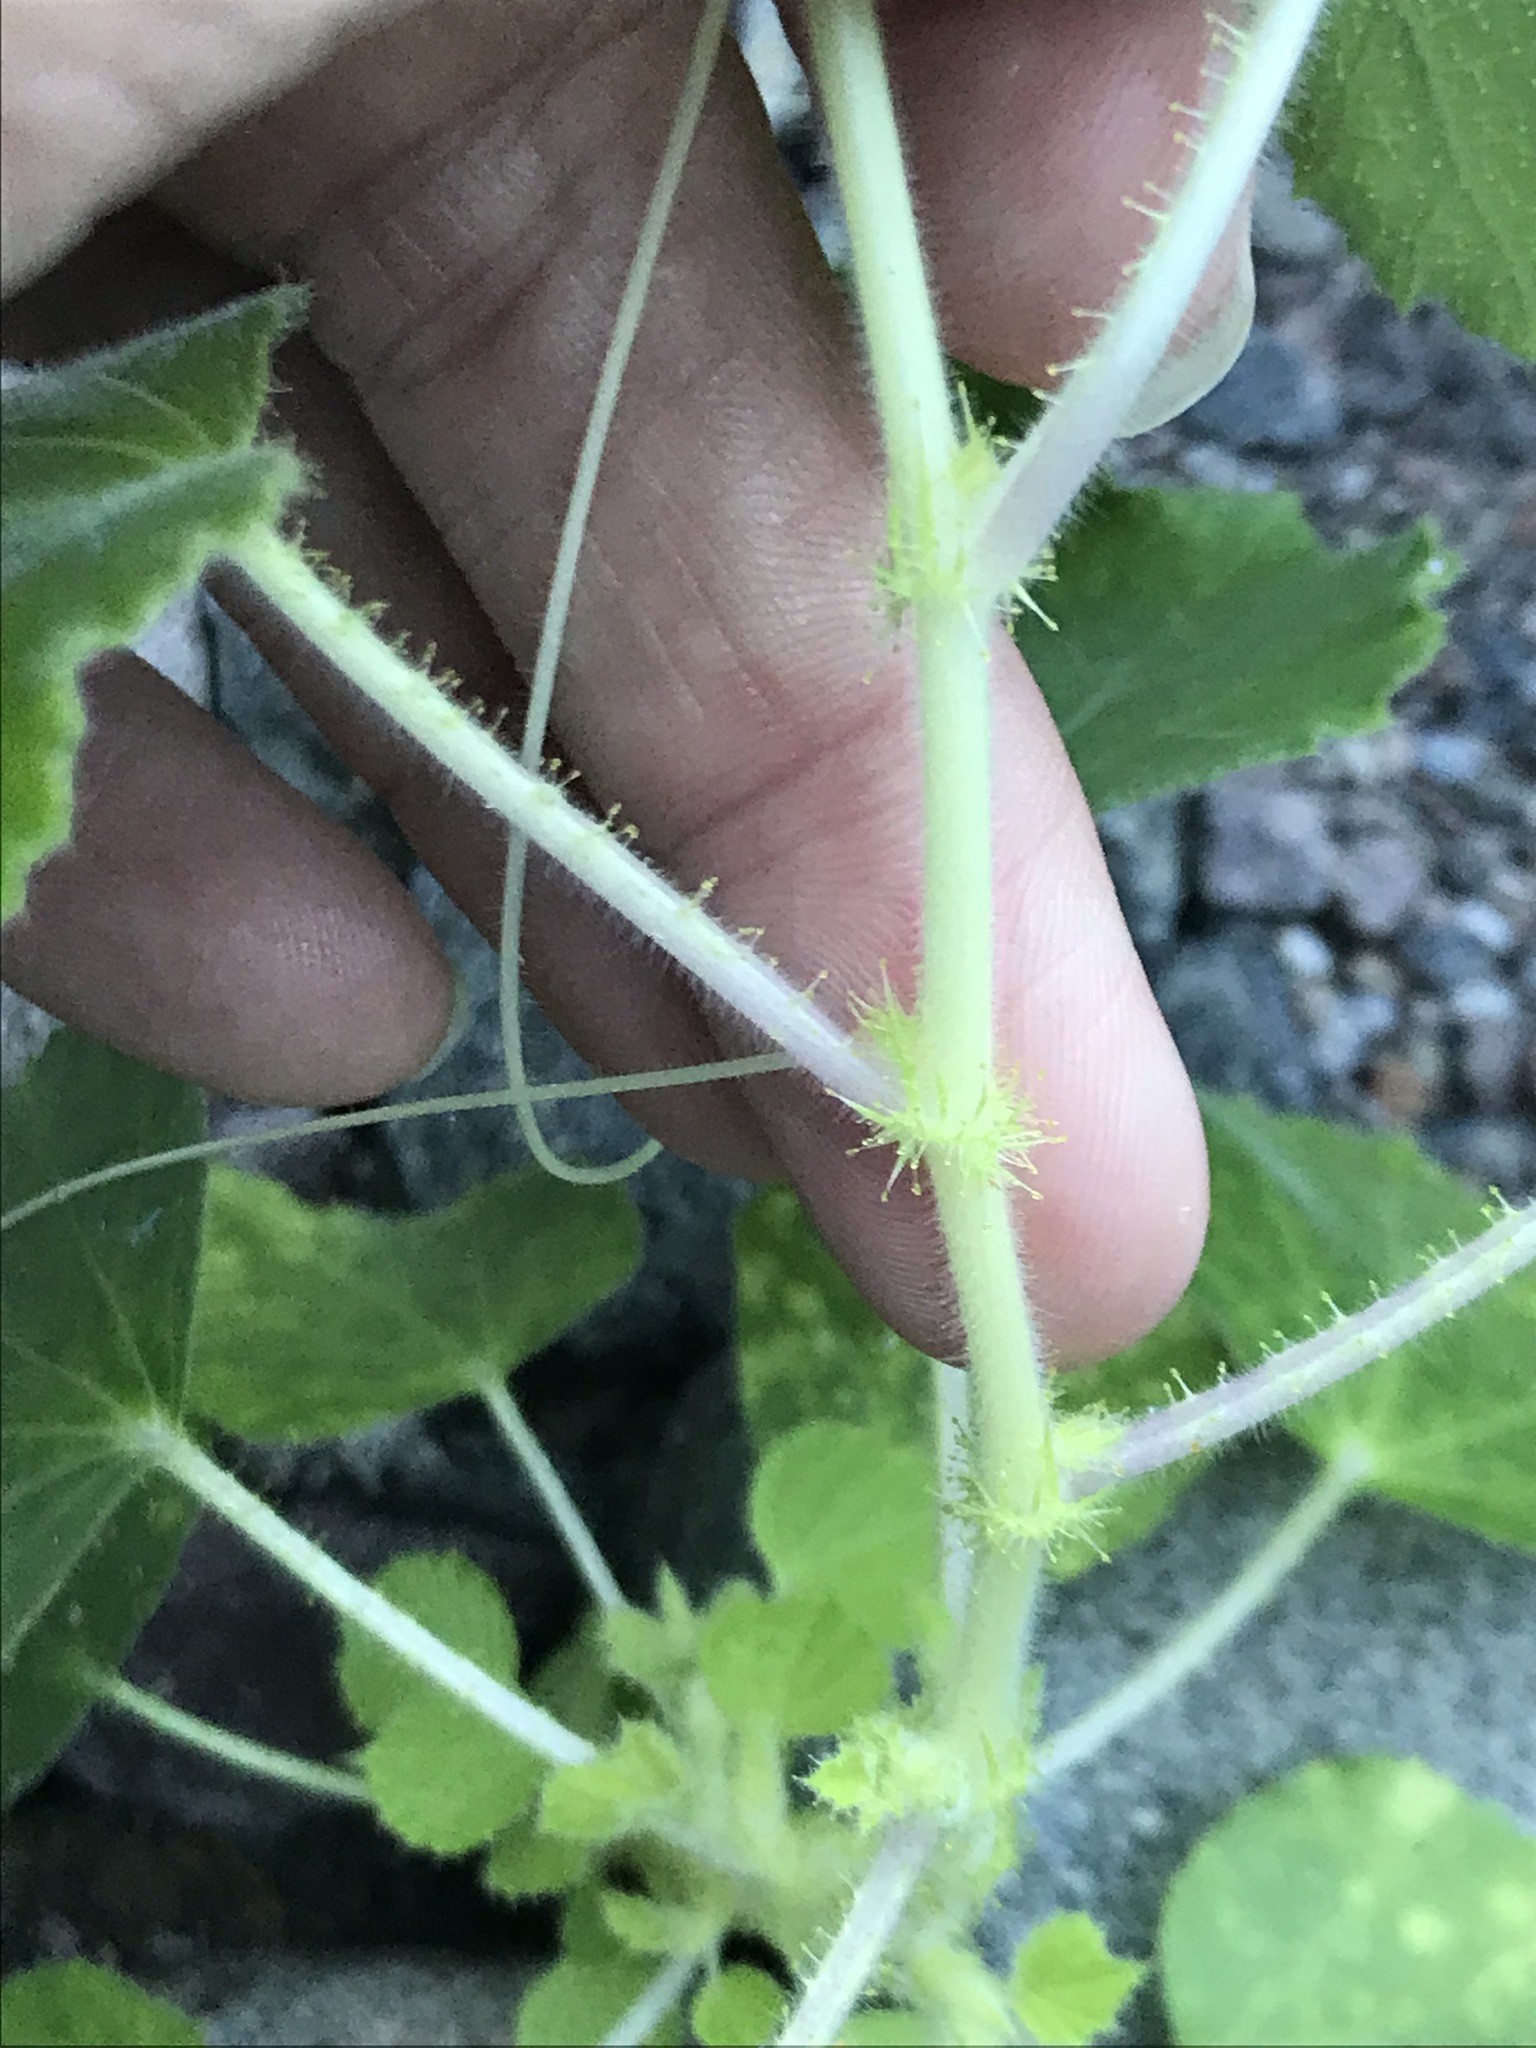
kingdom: Plantae
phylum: Tracheophyta
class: Magnoliopsida
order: Malpighiales
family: Passifloraceae
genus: Passiflora
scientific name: Passiflora foetida
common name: Fetid passionflower
